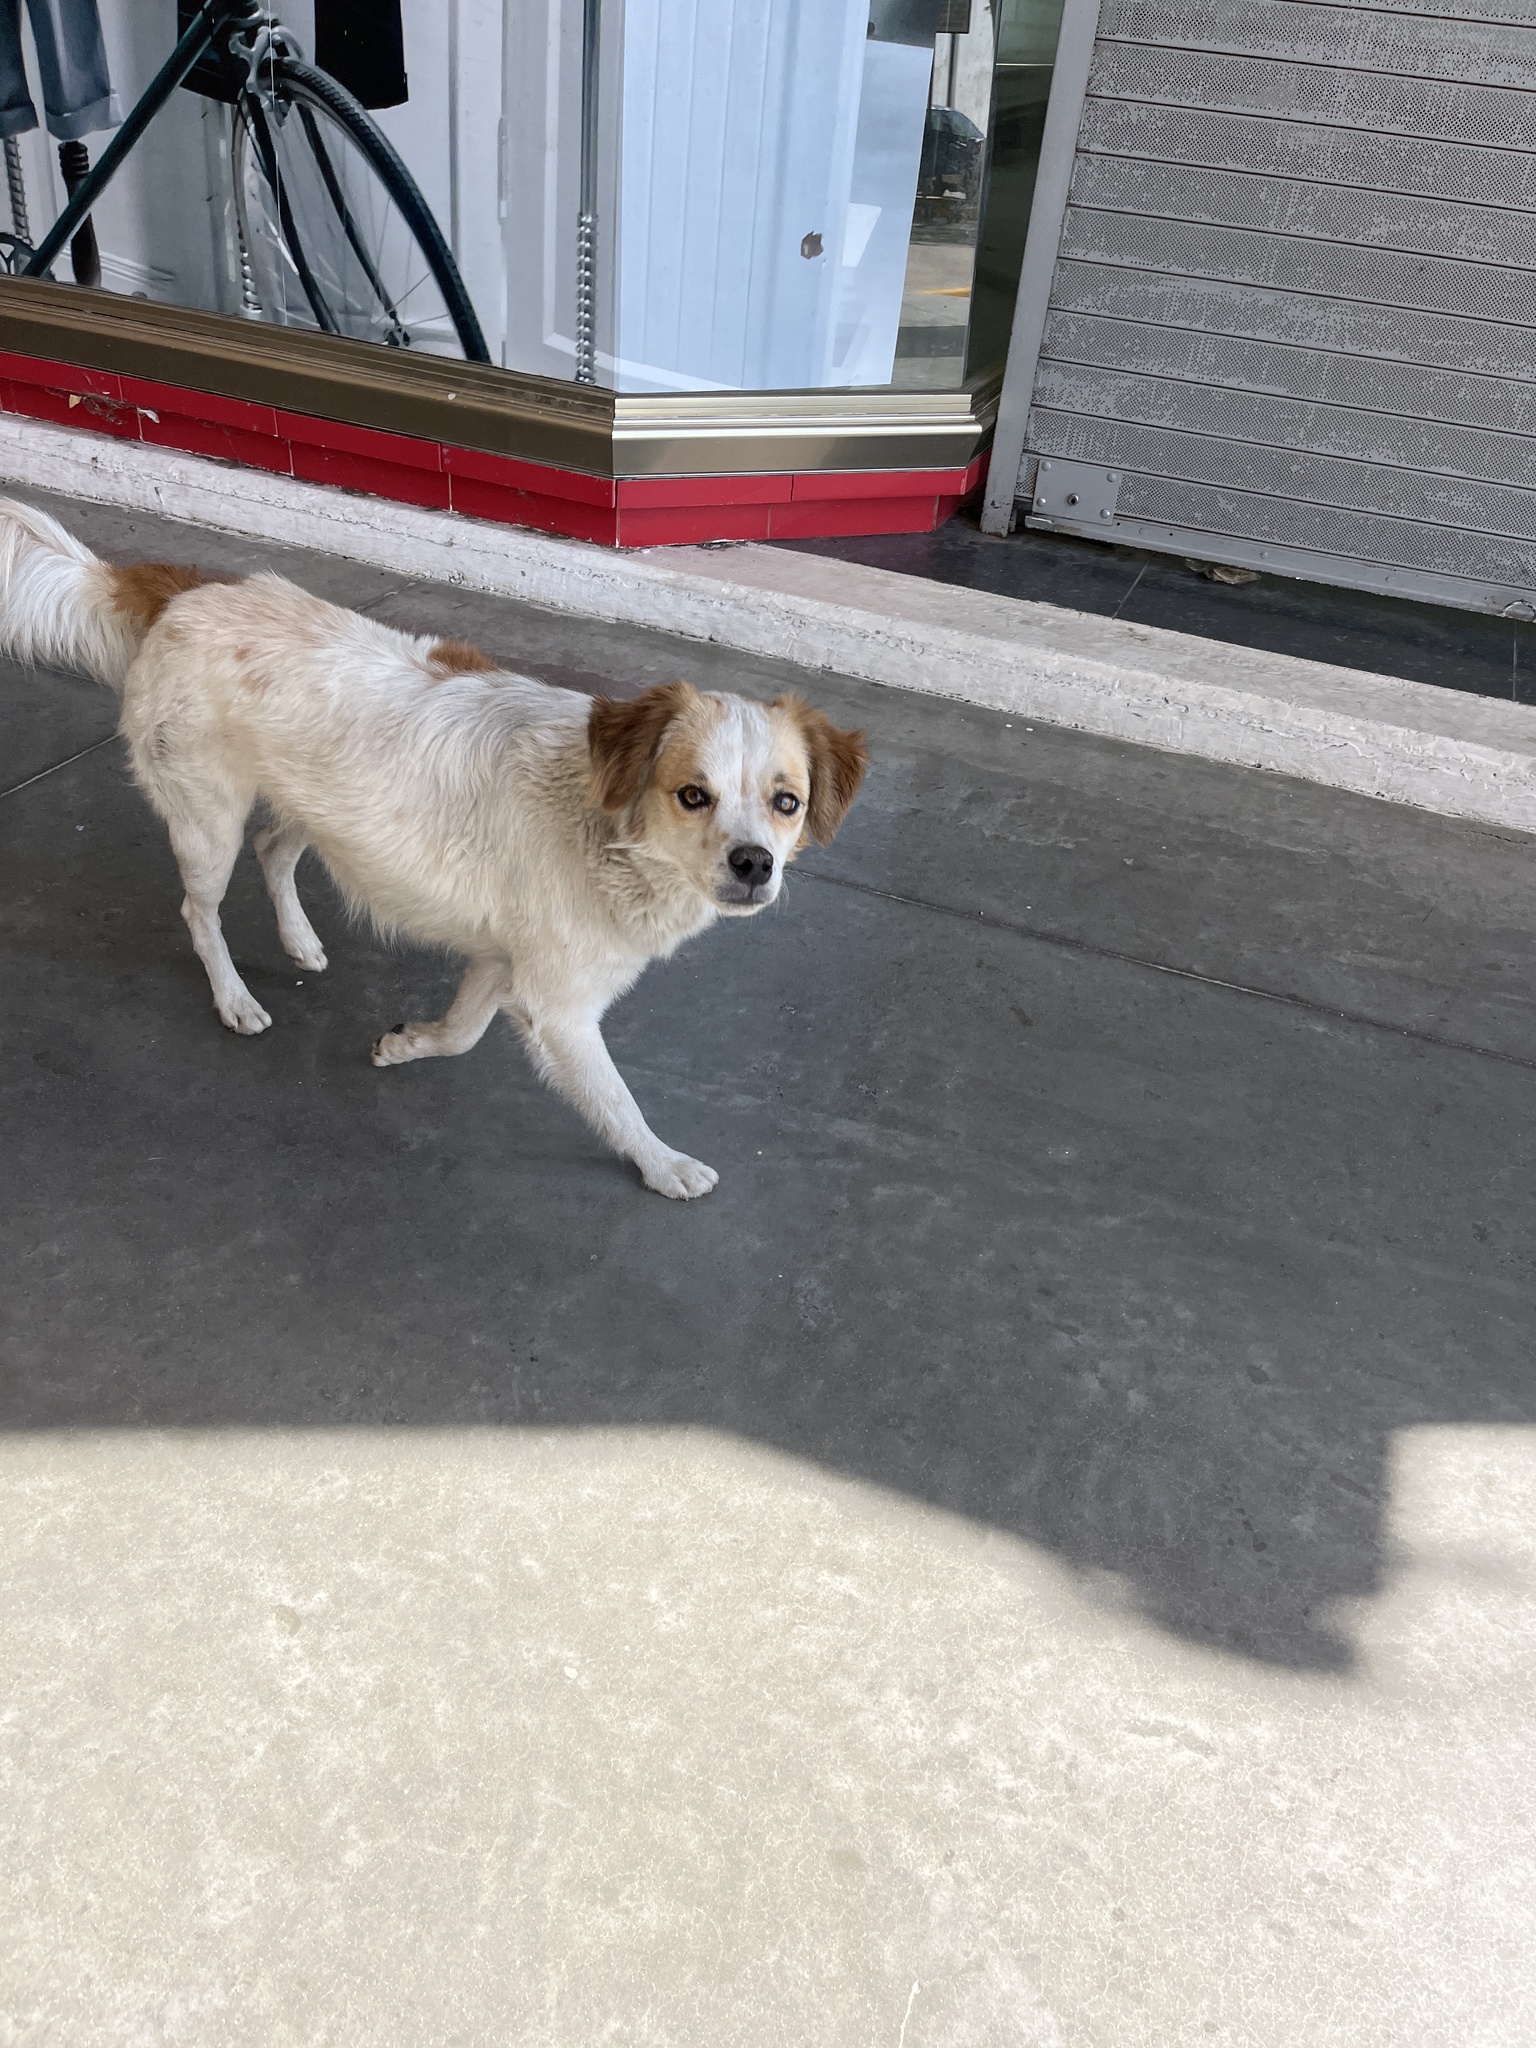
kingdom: Animalia
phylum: Chordata
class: Mammalia
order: Carnivora
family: Canidae
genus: Canis
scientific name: Canis lupus
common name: Gray wolf
